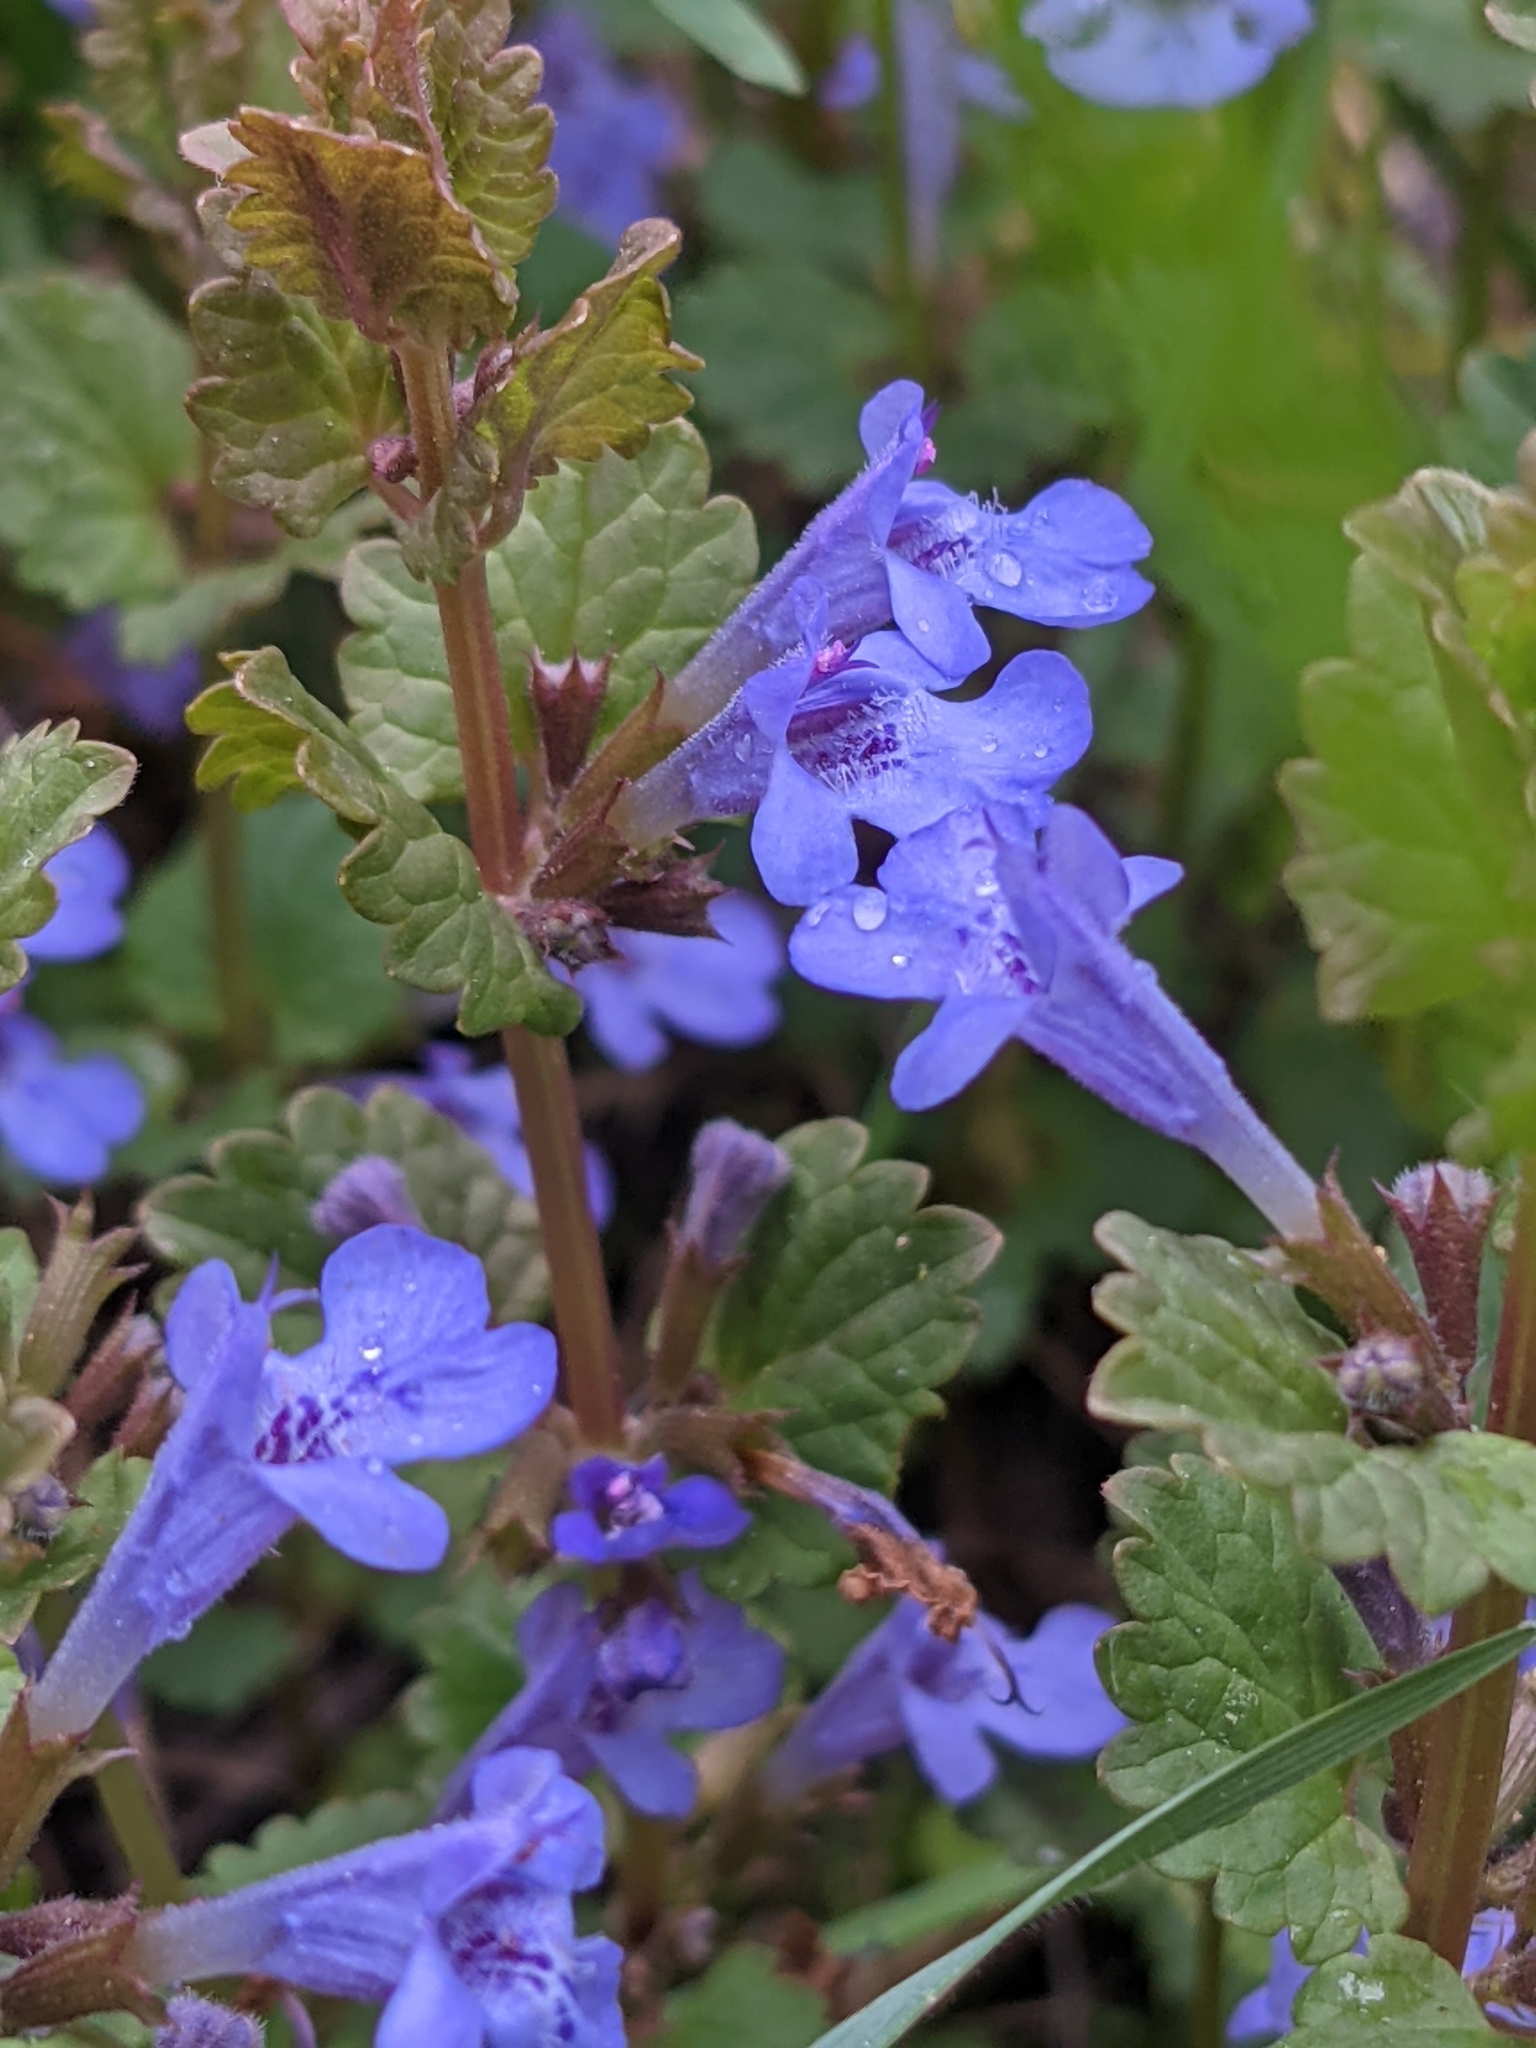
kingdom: Plantae
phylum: Tracheophyta
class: Magnoliopsida
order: Lamiales
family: Lamiaceae
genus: Glechoma
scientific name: Glechoma hederacea
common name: Ground ivy
